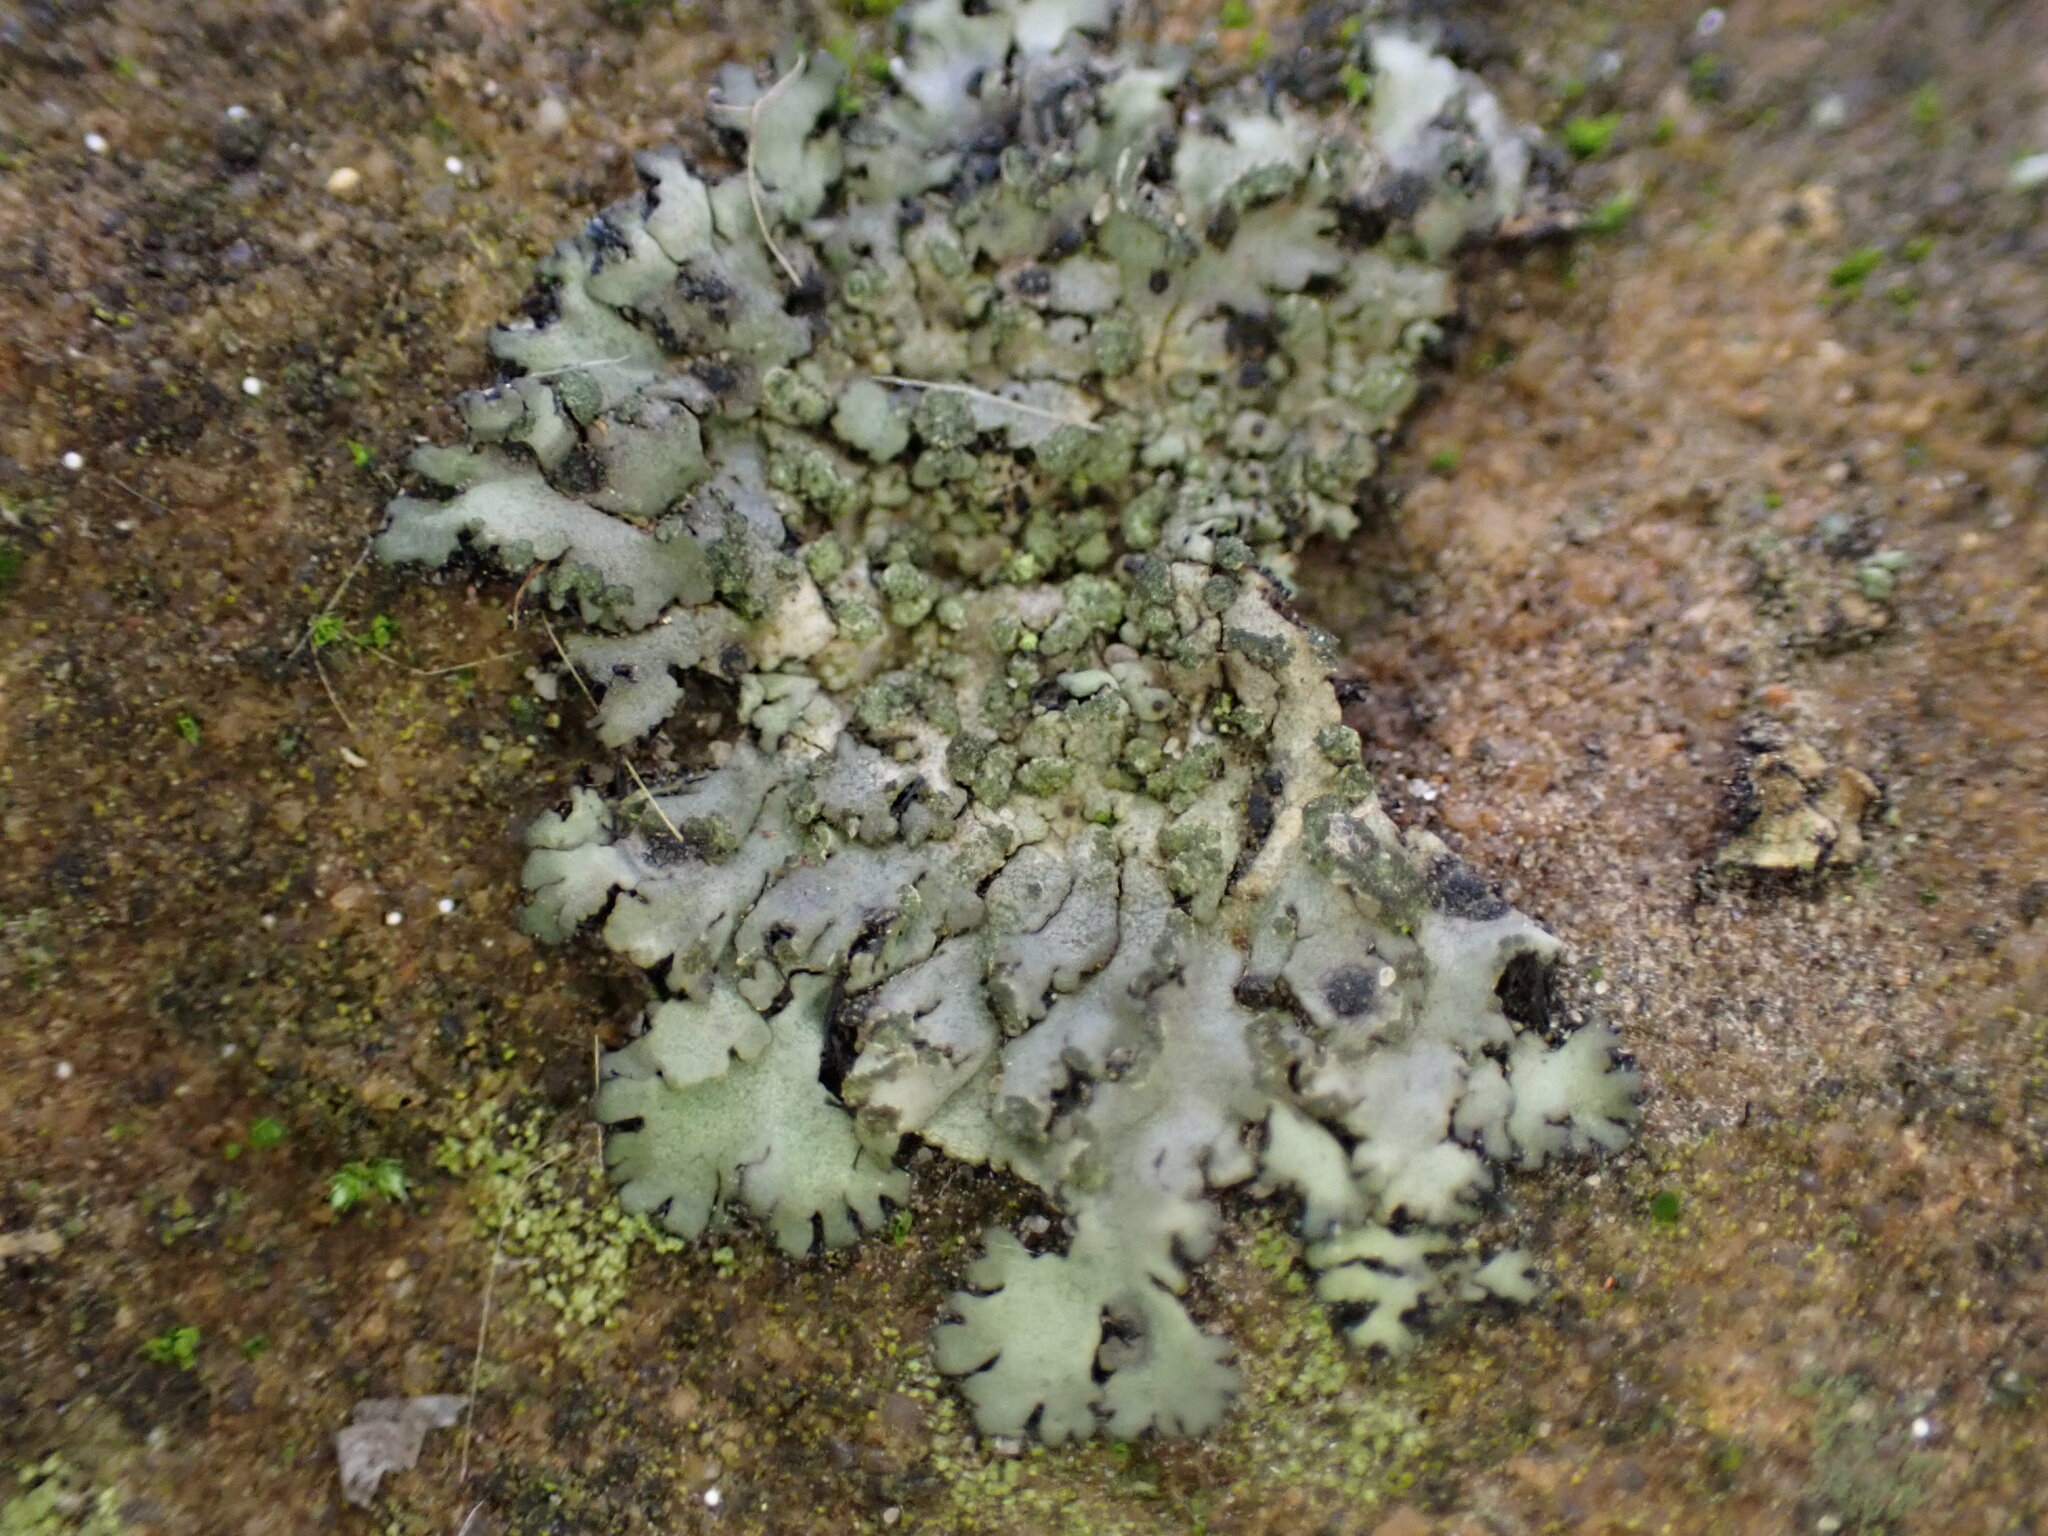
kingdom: Fungi
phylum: Ascomycota
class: Lecanoromycetes
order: Caliciales
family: Physciaceae
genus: Phaeophyscia
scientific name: Phaeophyscia orbicularis
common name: Mealy shadow lichen
